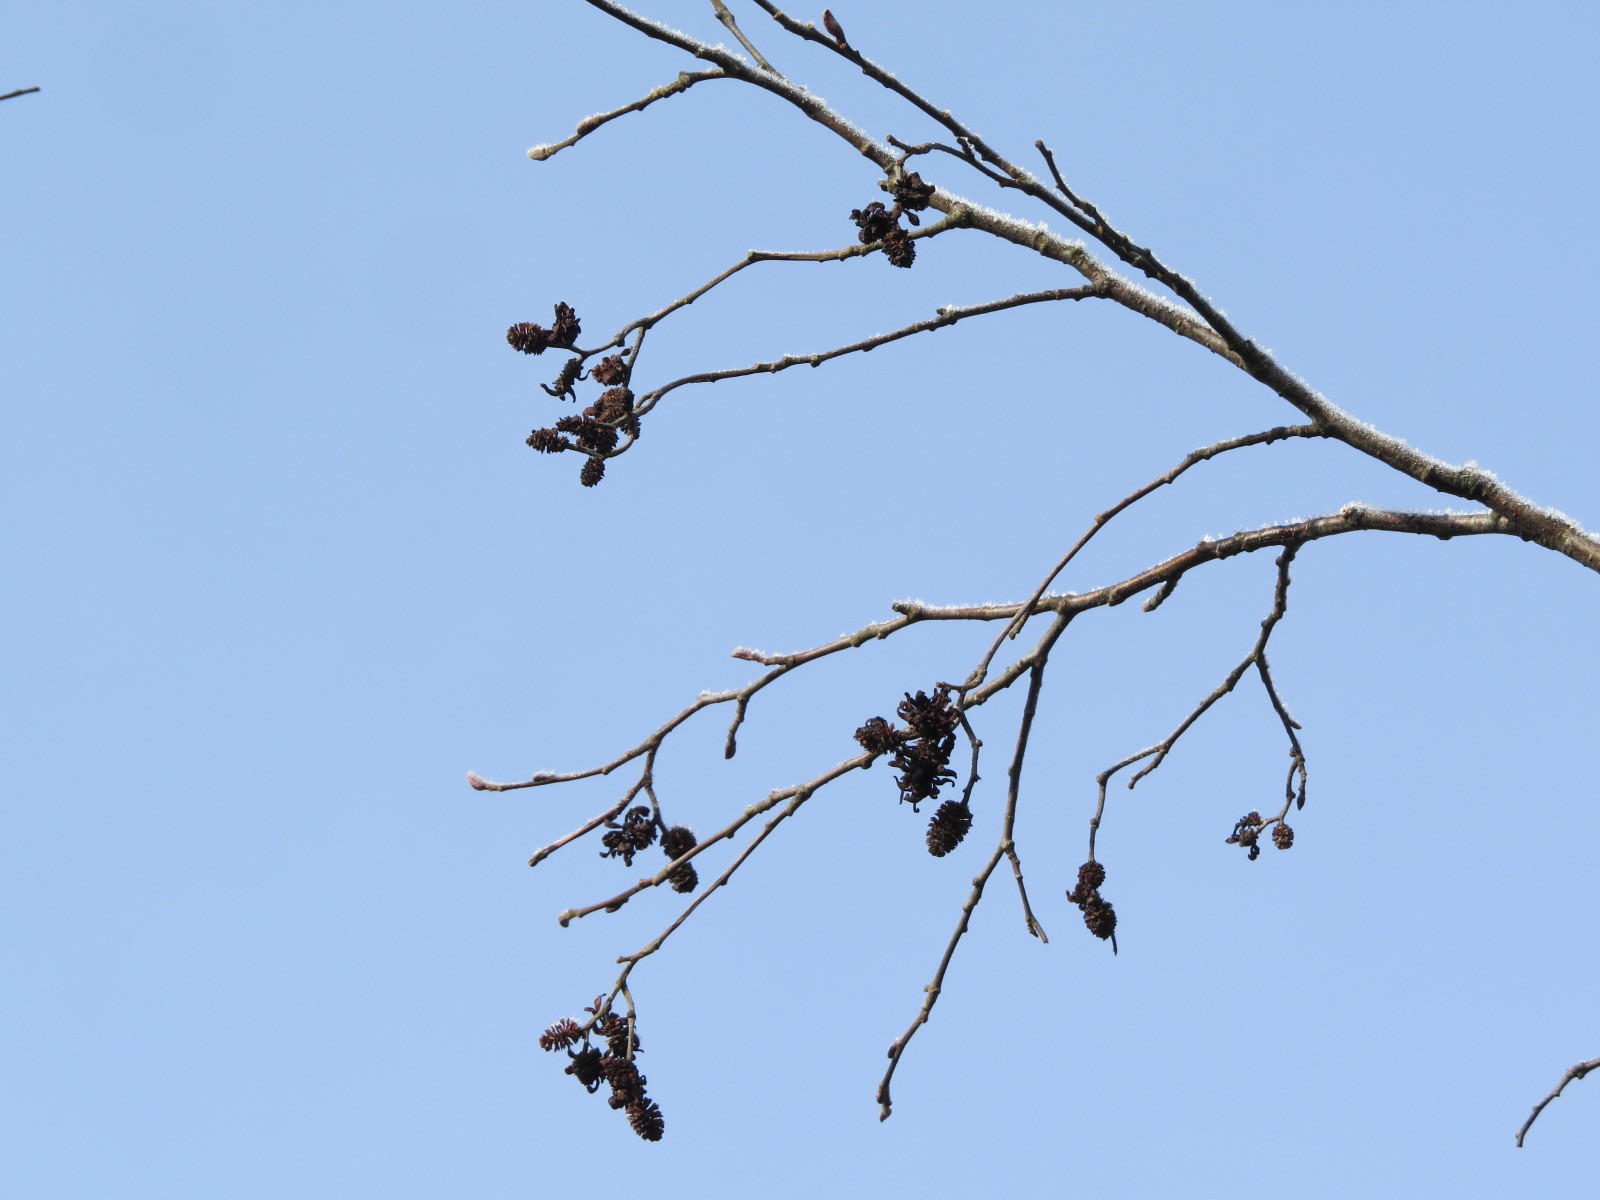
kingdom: Fungi
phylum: Ascomycota
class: Taphrinomycetes
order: Taphrinales
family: Taphrinaceae
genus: Taphrina
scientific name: Taphrina robinsoniana
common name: Eastern american alder tongue gall fungus
